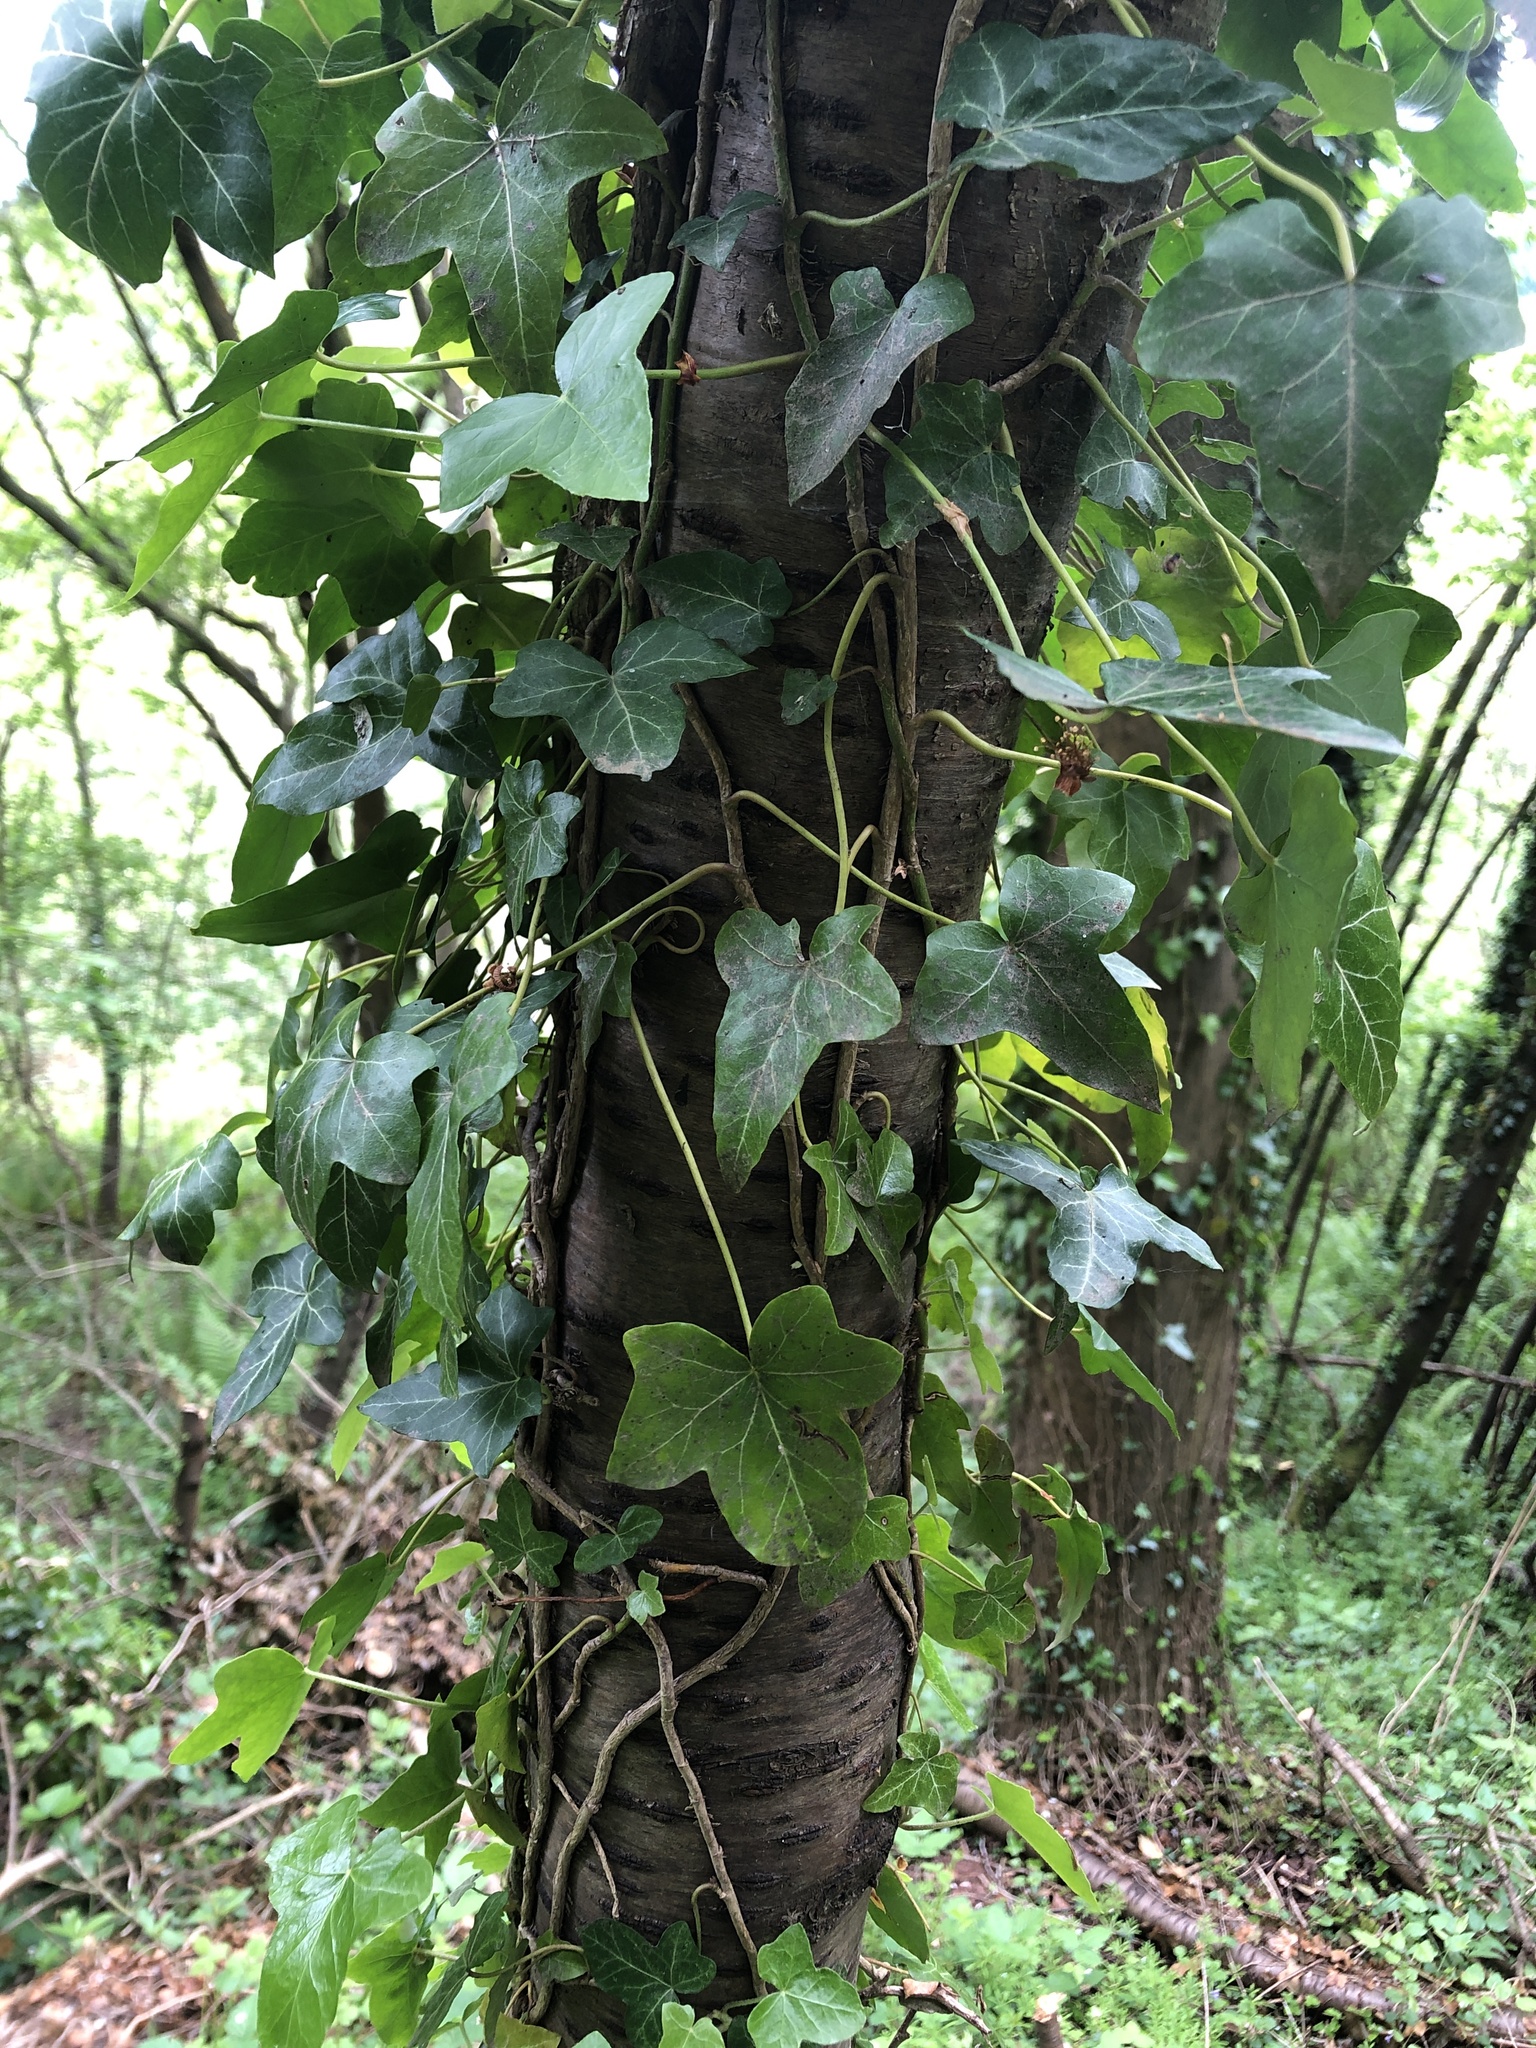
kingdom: Plantae
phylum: Tracheophyta
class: Magnoliopsida
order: Apiales
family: Araliaceae
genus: Hedera
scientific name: Hedera helix
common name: Ivy
